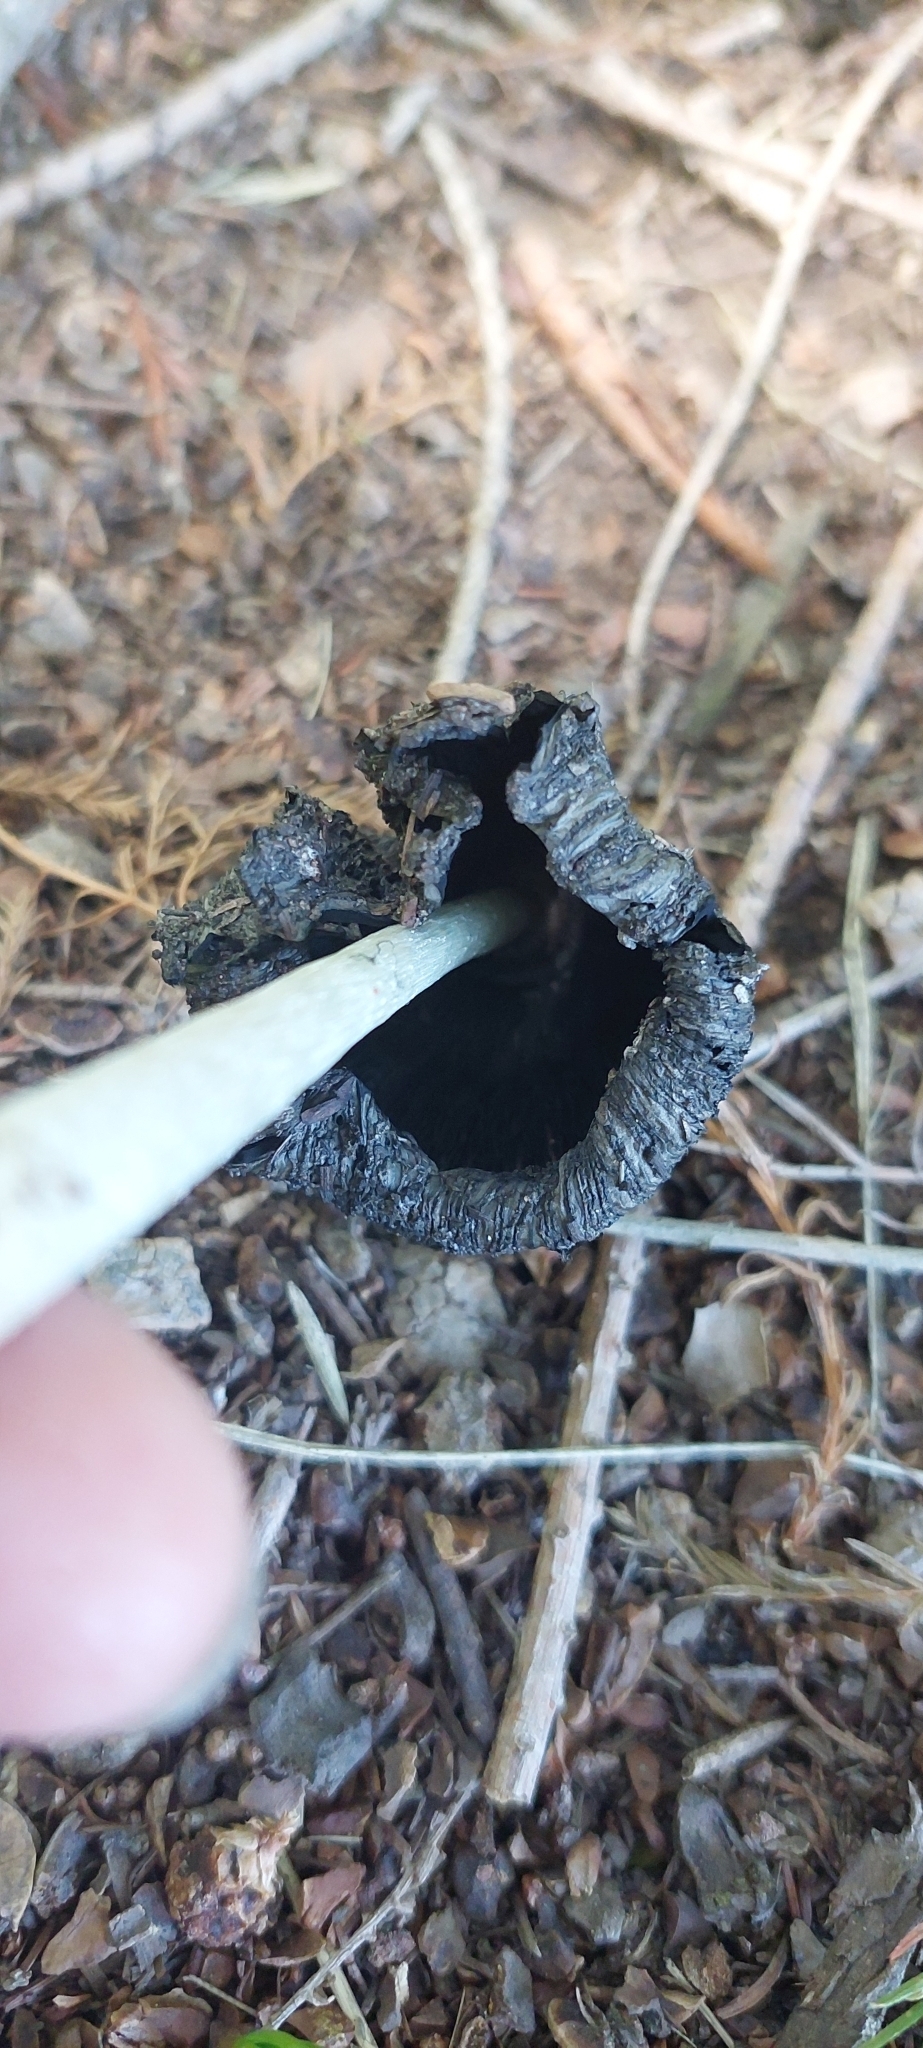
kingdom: Fungi
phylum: Basidiomycota
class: Agaricomycetes
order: Agaricales
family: Agaricaceae
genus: Coprinus
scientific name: Coprinus comatus
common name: Lawyer's wig
